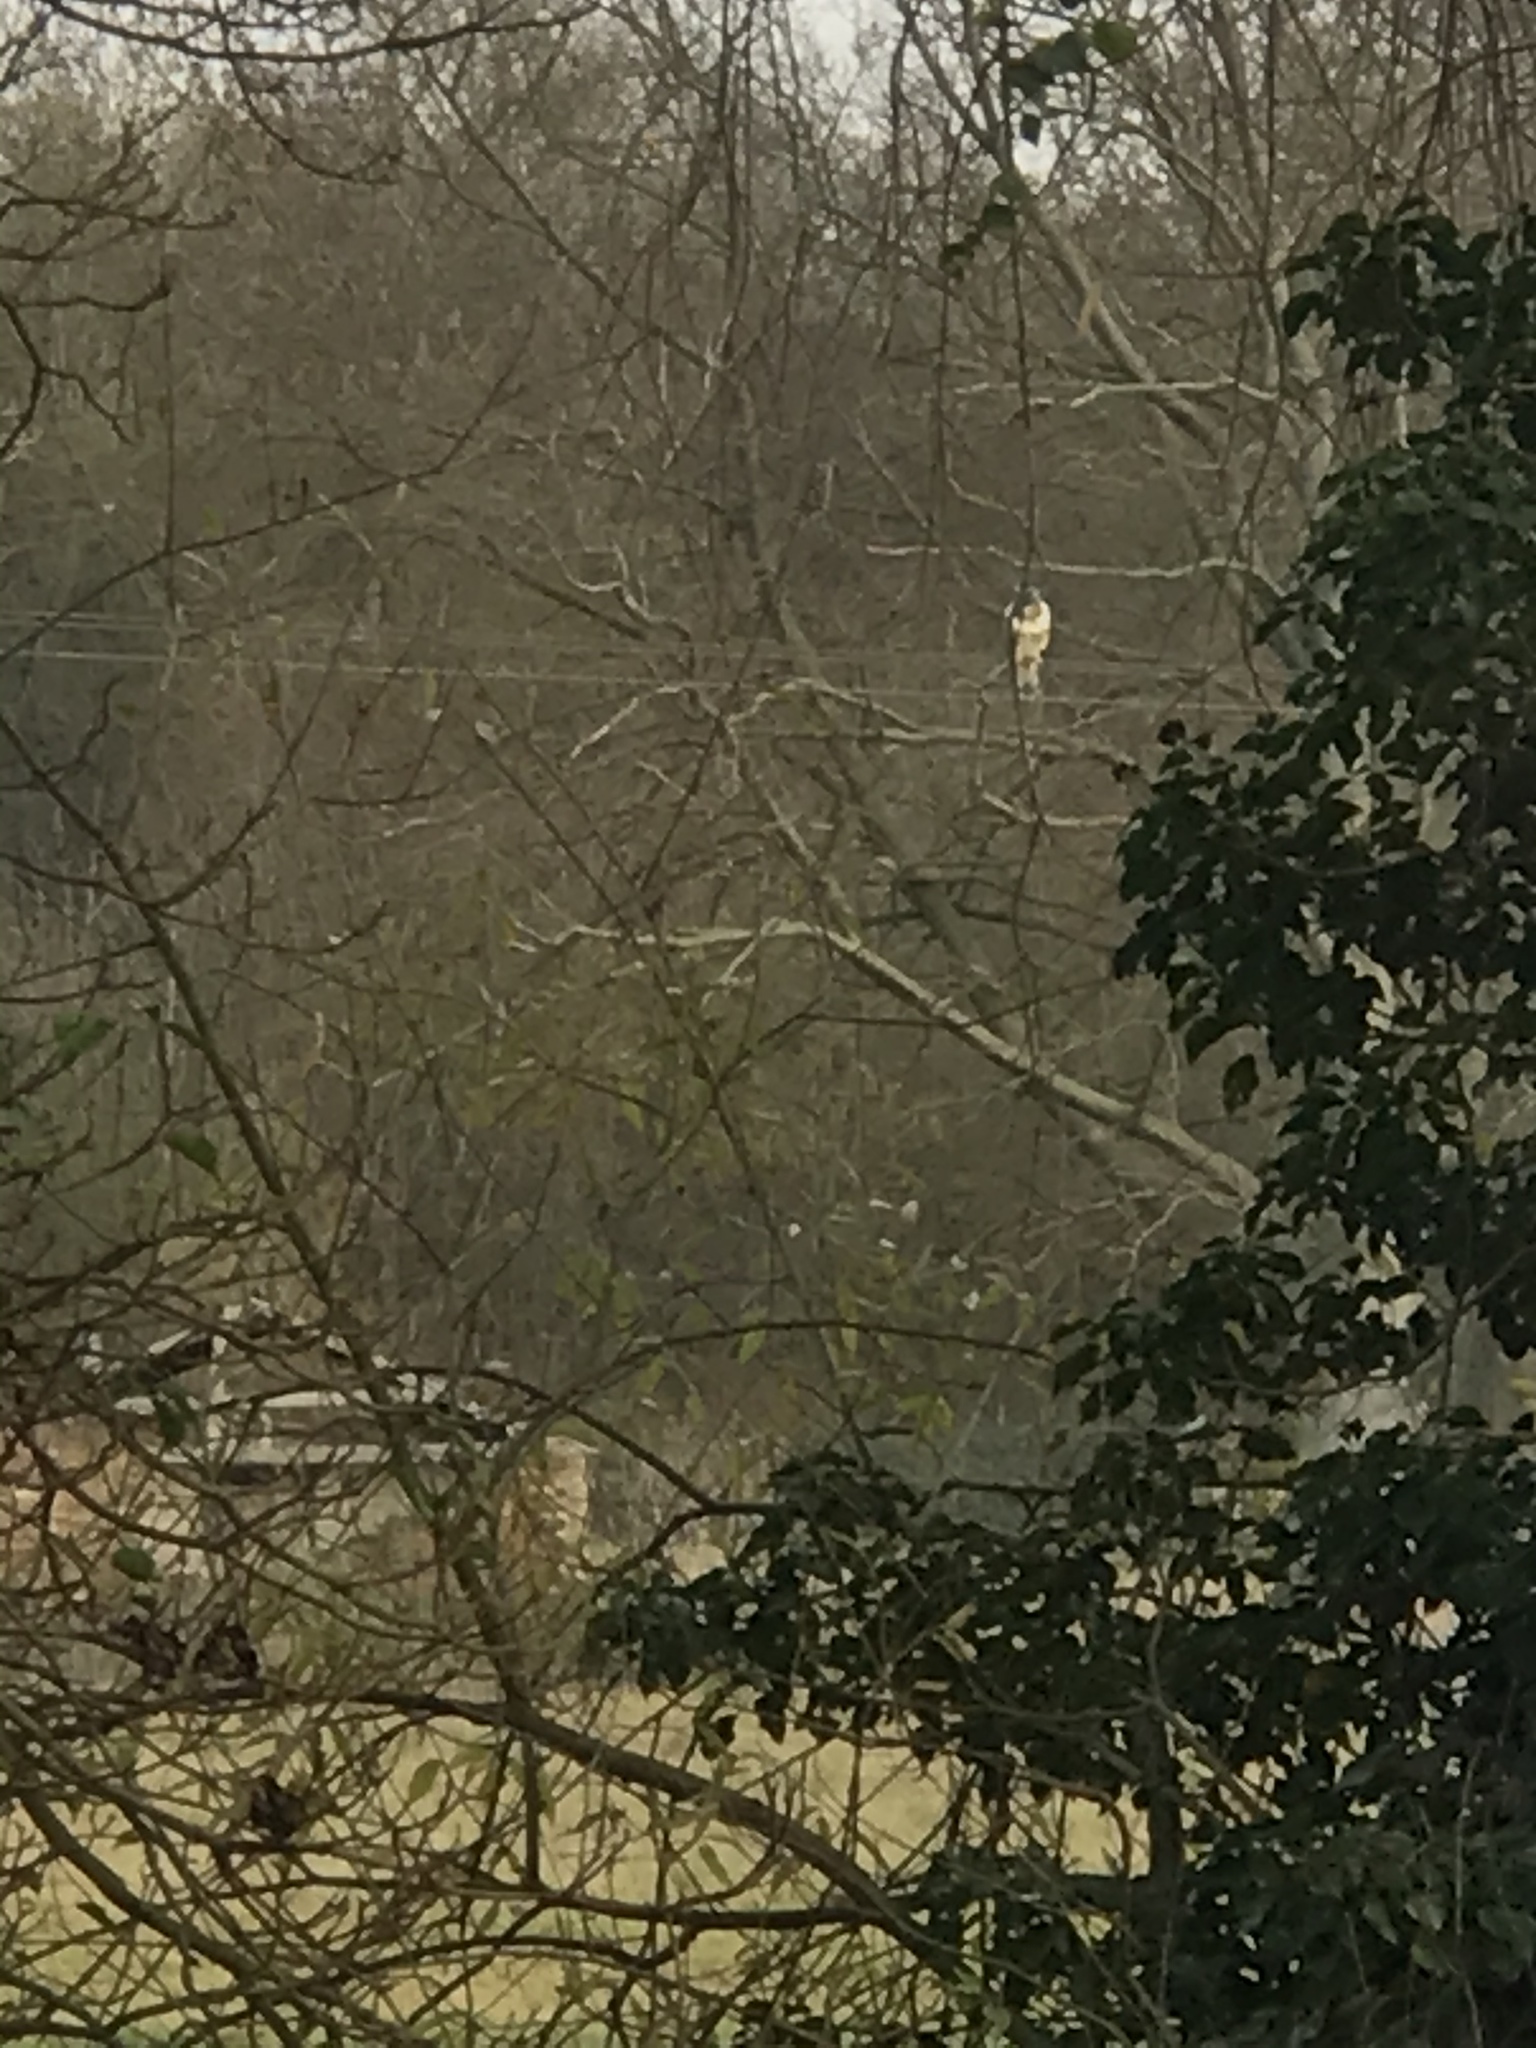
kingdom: Animalia
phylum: Chordata
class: Aves
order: Accipitriformes
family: Accipitridae
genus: Buteo
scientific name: Buteo buteo
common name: Common buzzard
